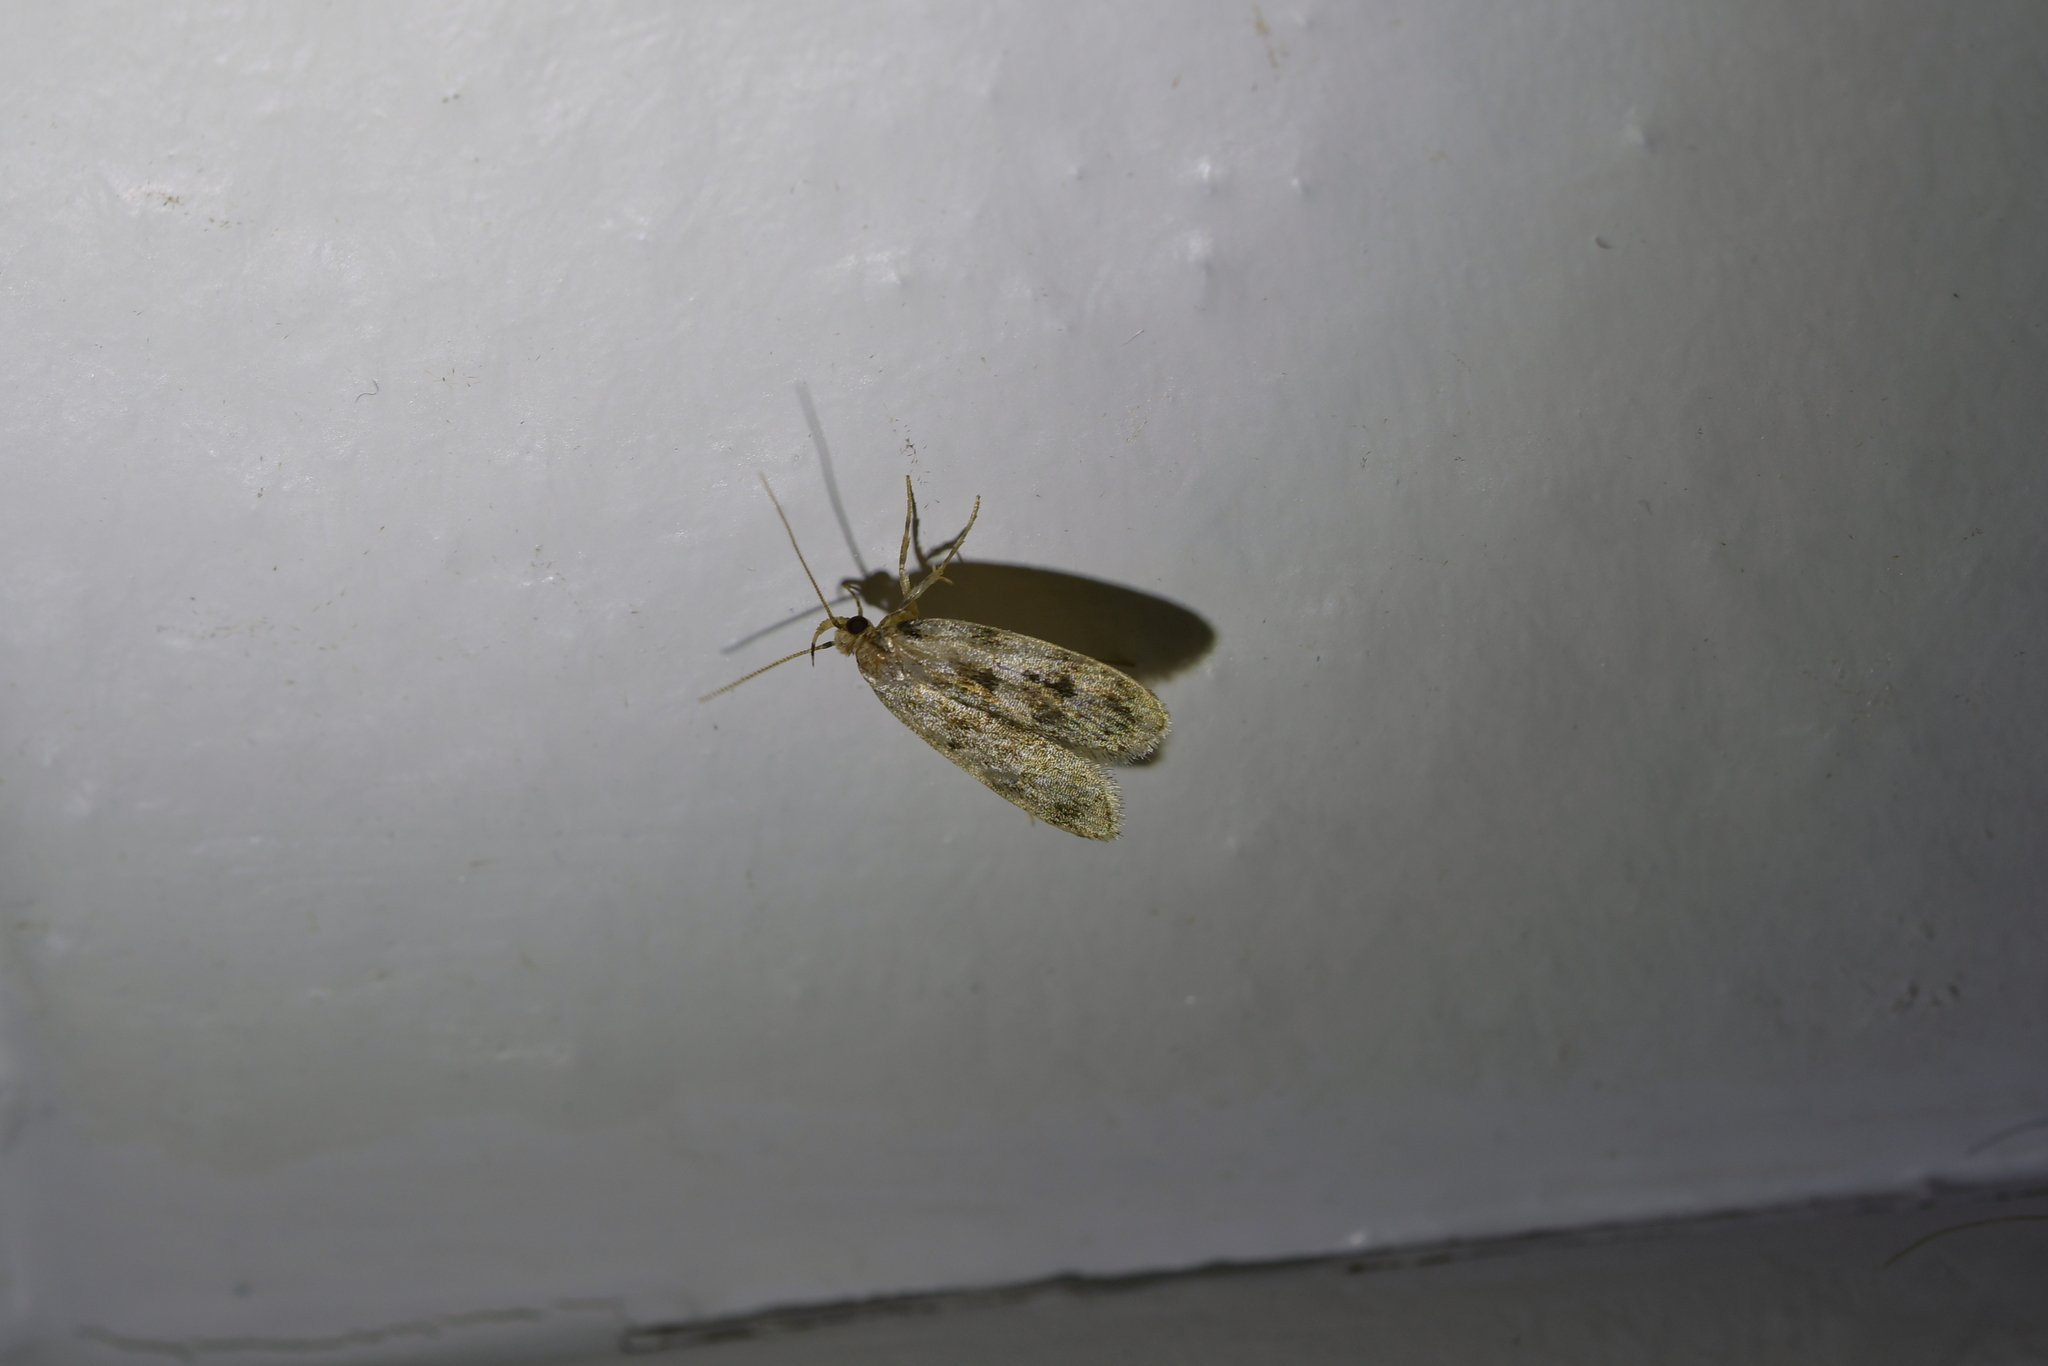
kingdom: Animalia
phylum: Arthropoda
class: Insecta
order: Lepidoptera
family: Oecophoridae
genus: Barea
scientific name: Barea exarcha
